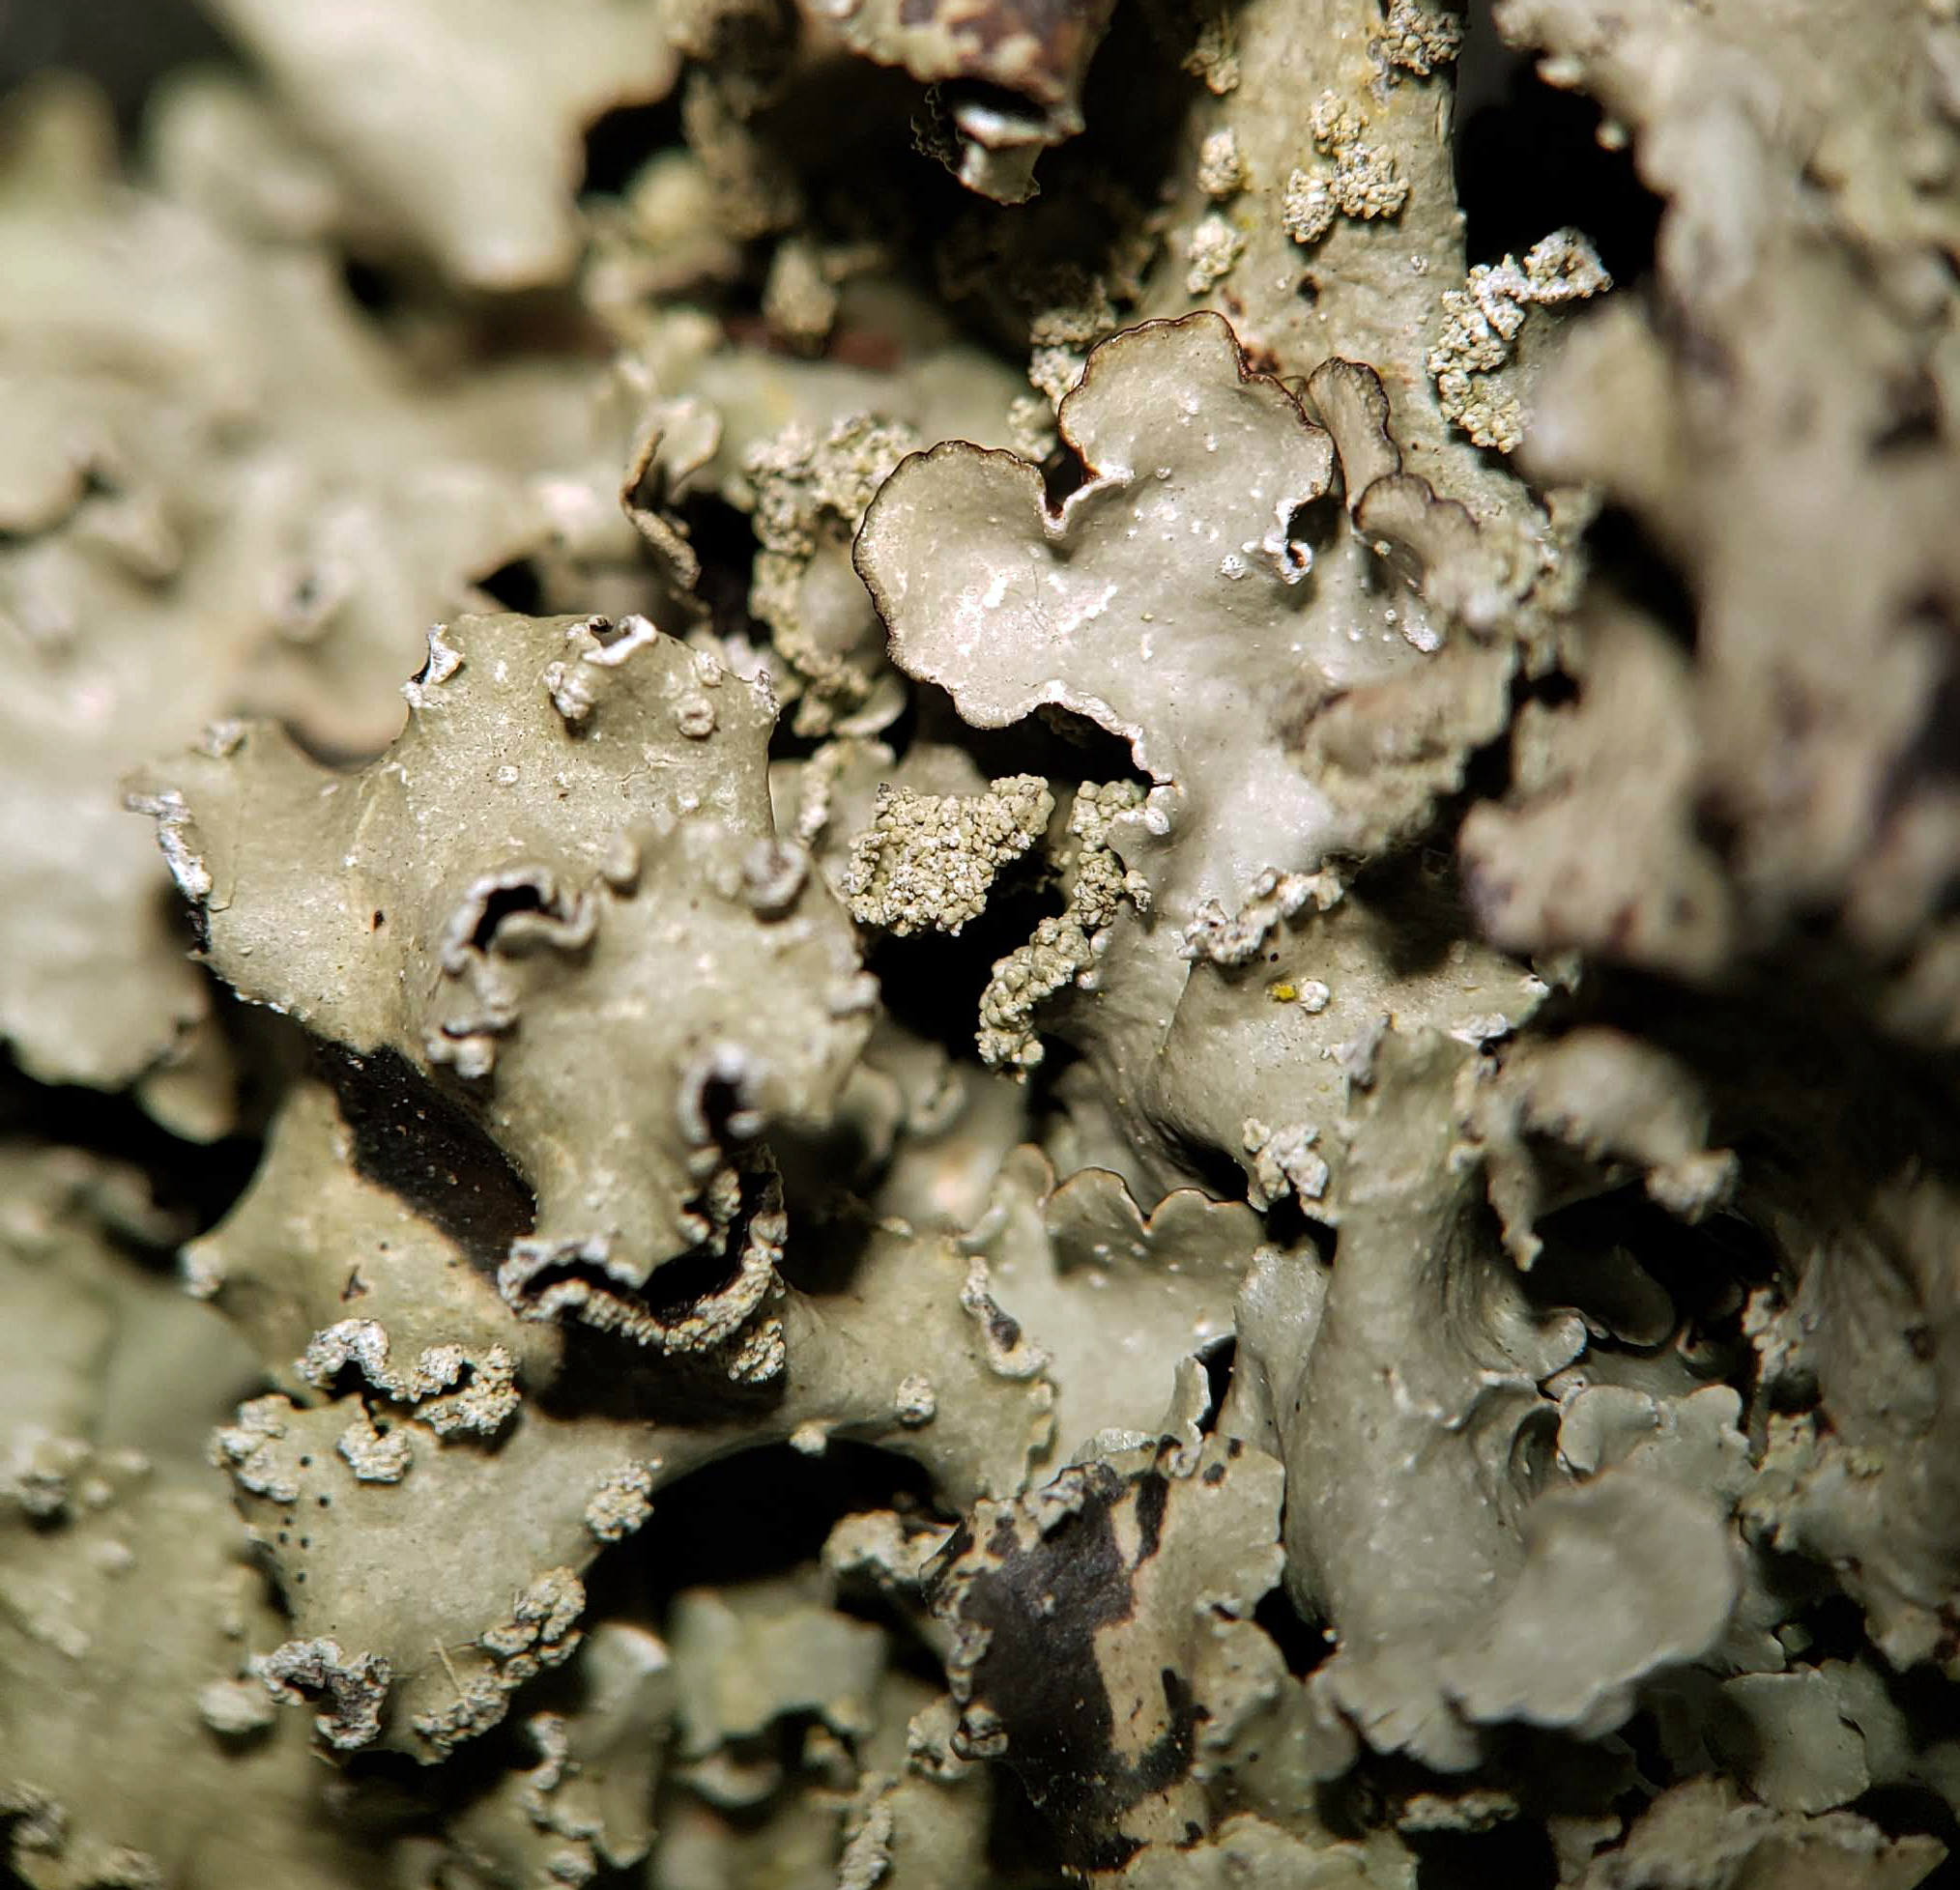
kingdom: Fungi
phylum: Ascomycota
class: Lecanoromycetes
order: Lecanorales
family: Parmeliaceae
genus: Flavopunctelia
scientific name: Flavopunctelia flaventior
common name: Speckled greenshield
